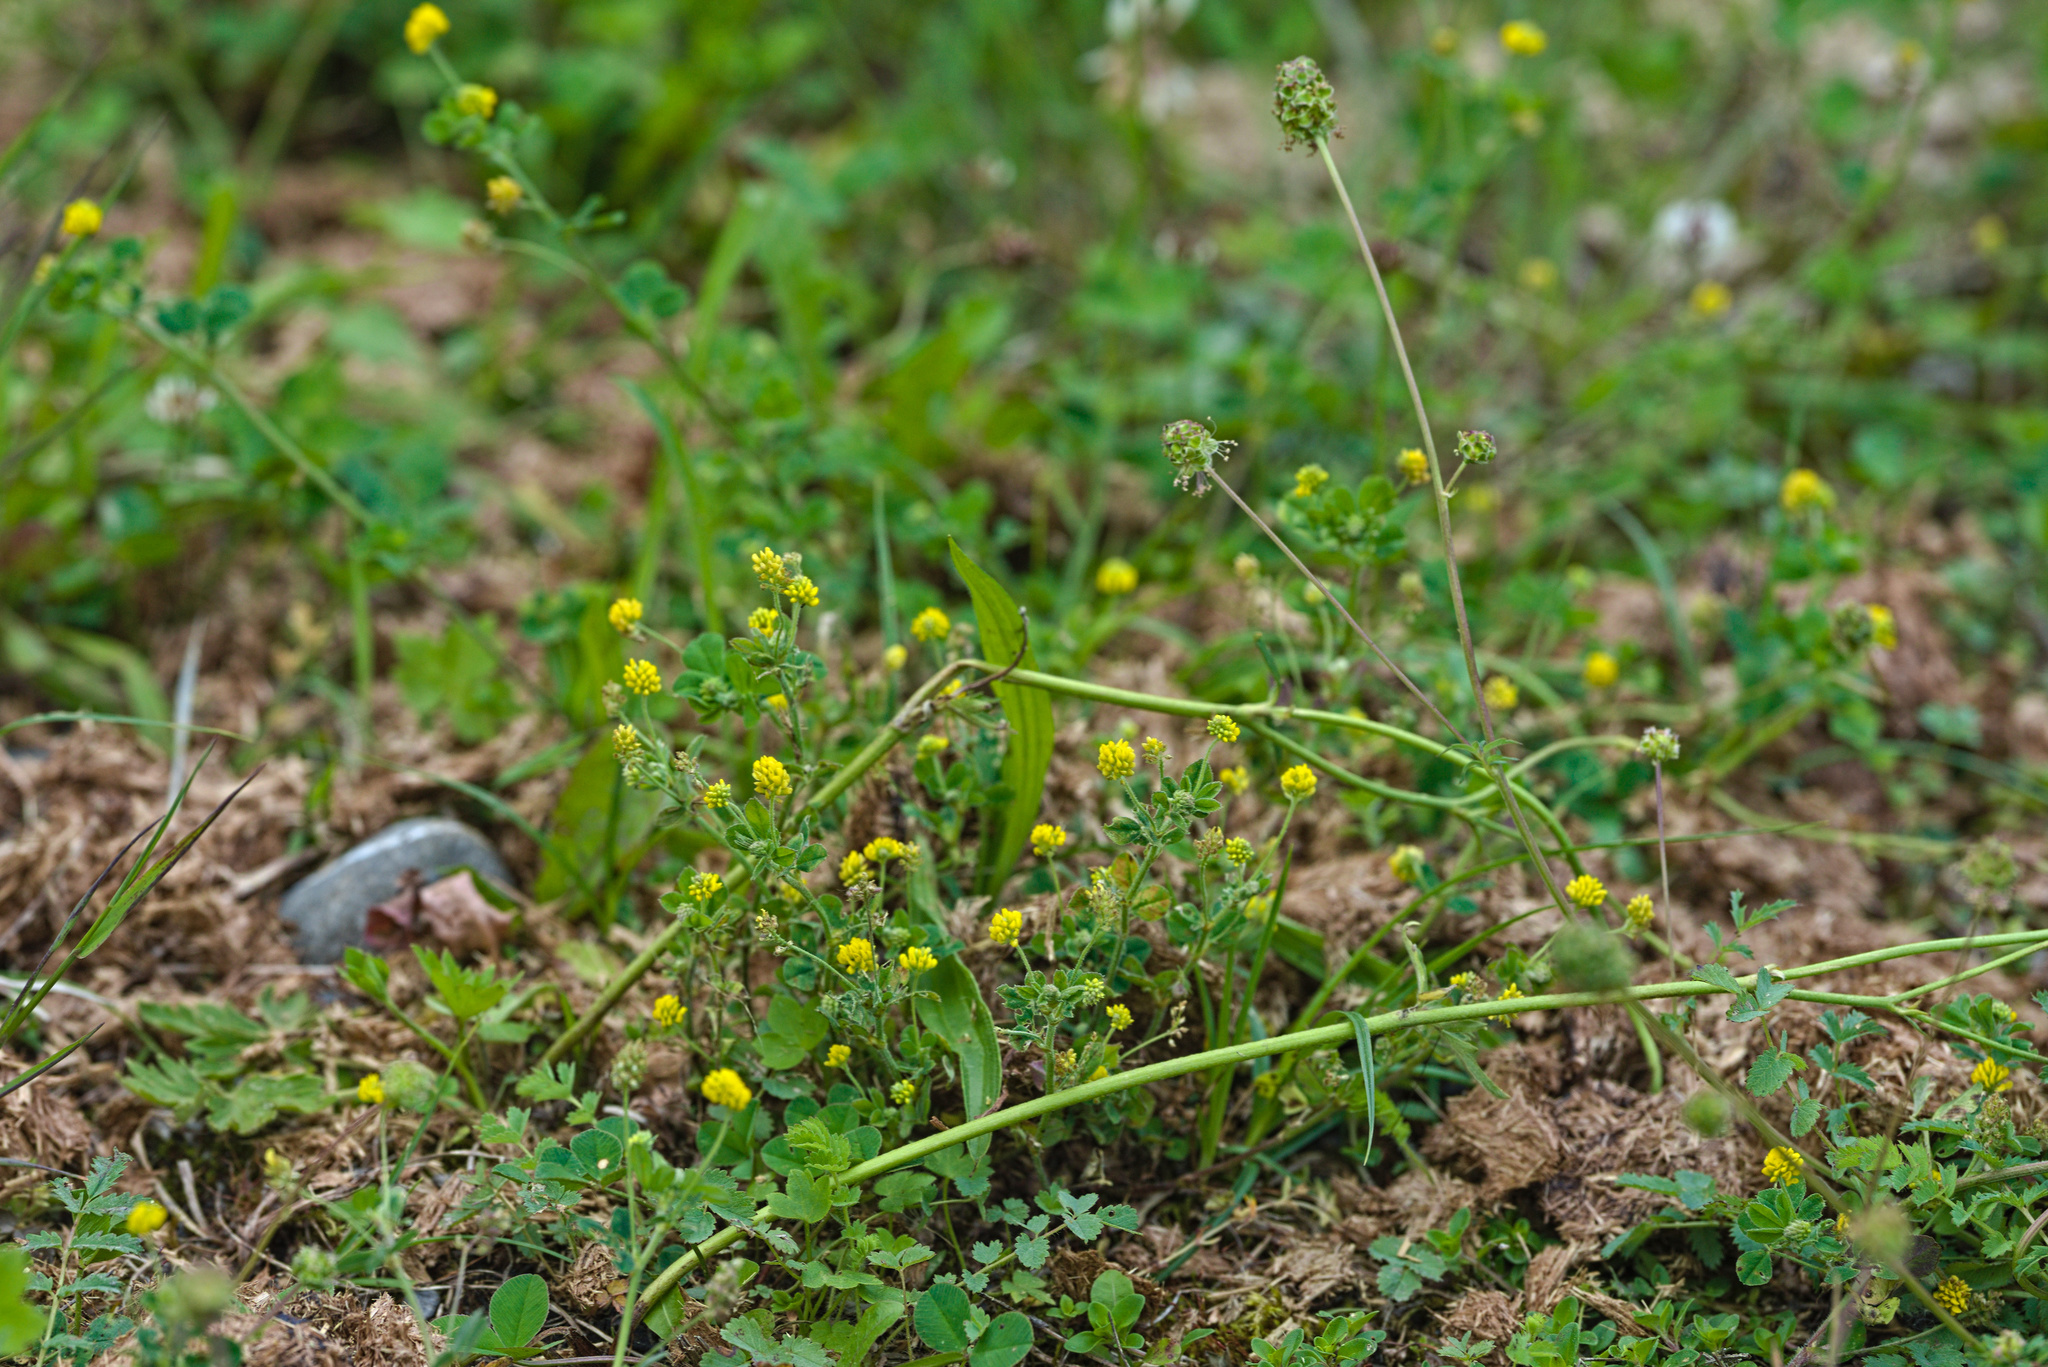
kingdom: Plantae
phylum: Tracheophyta
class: Magnoliopsida
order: Fabales
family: Fabaceae
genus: Medicago
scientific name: Medicago lupulina
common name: Black medick
